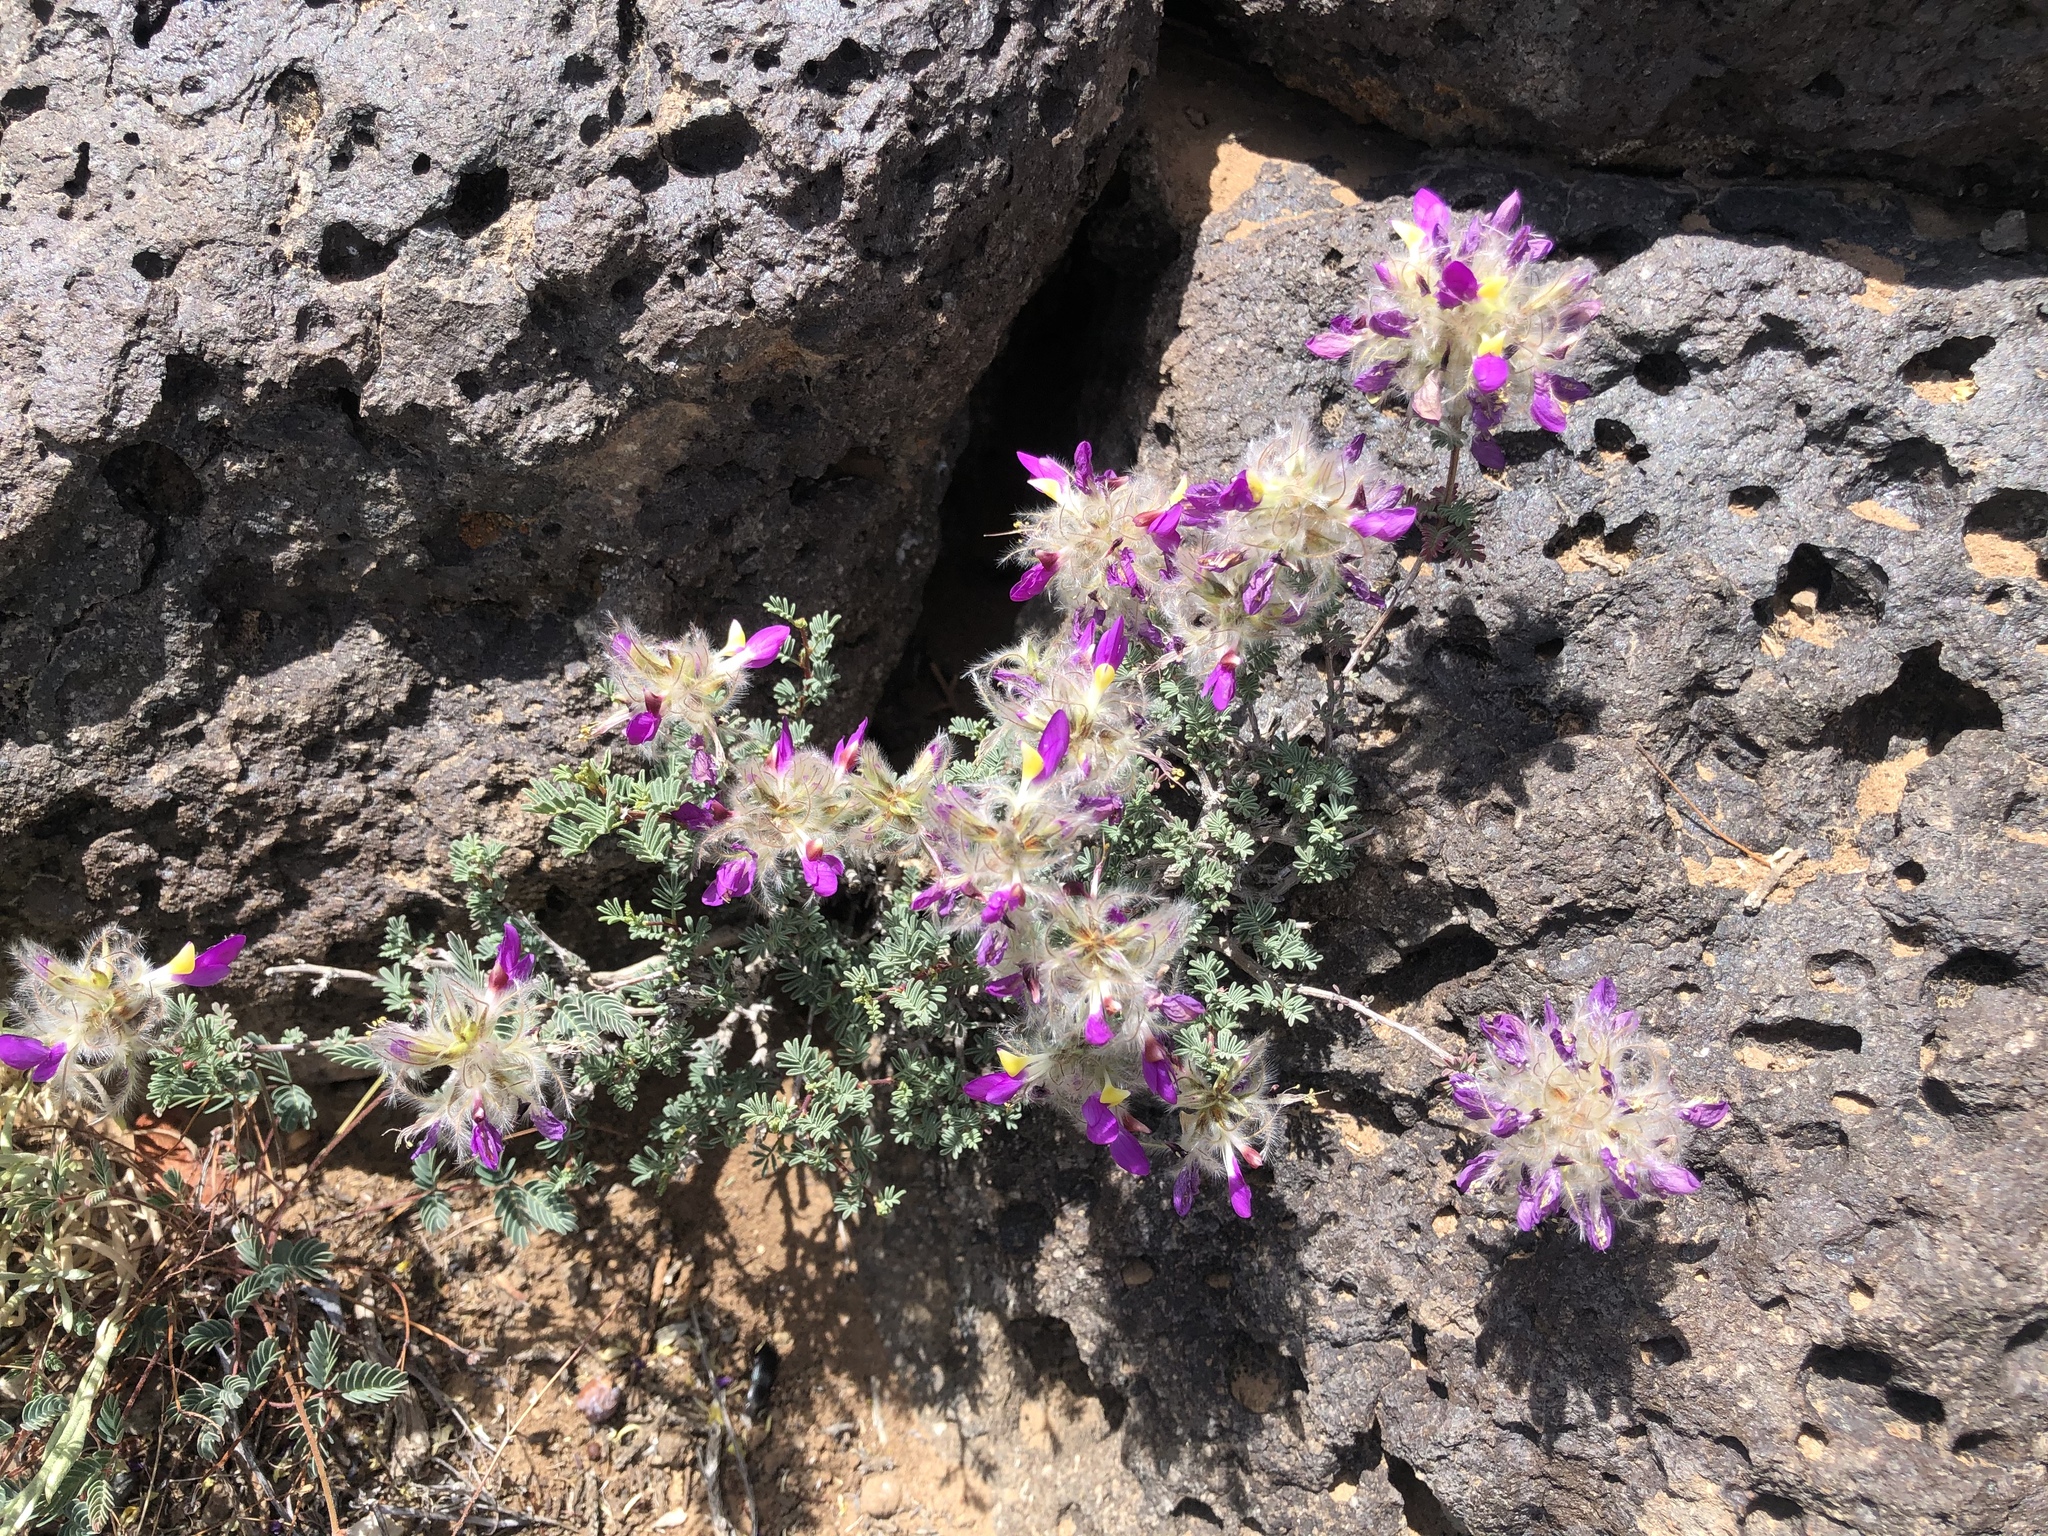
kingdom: Plantae
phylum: Tracheophyta
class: Magnoliopsida
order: Fabales
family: Fabaceae
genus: Dalea
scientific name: Dalea formosa
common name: Feather-plume dalea
